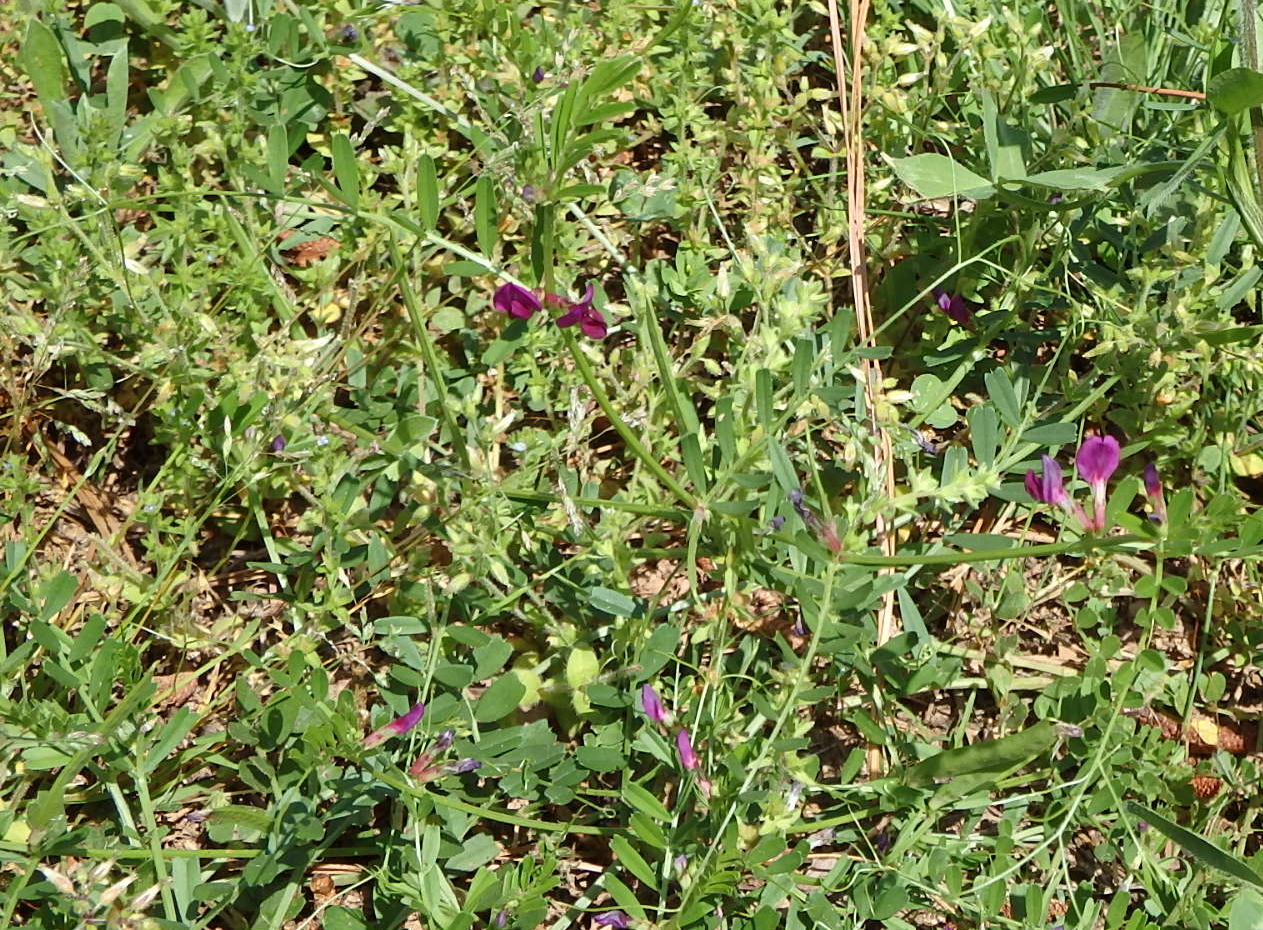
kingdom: Plantae
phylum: Tracheophyta
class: Magnoliopsida
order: Fabales
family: Fabaceae
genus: Vicia
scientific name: Vicia sativa
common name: Garden vetch
